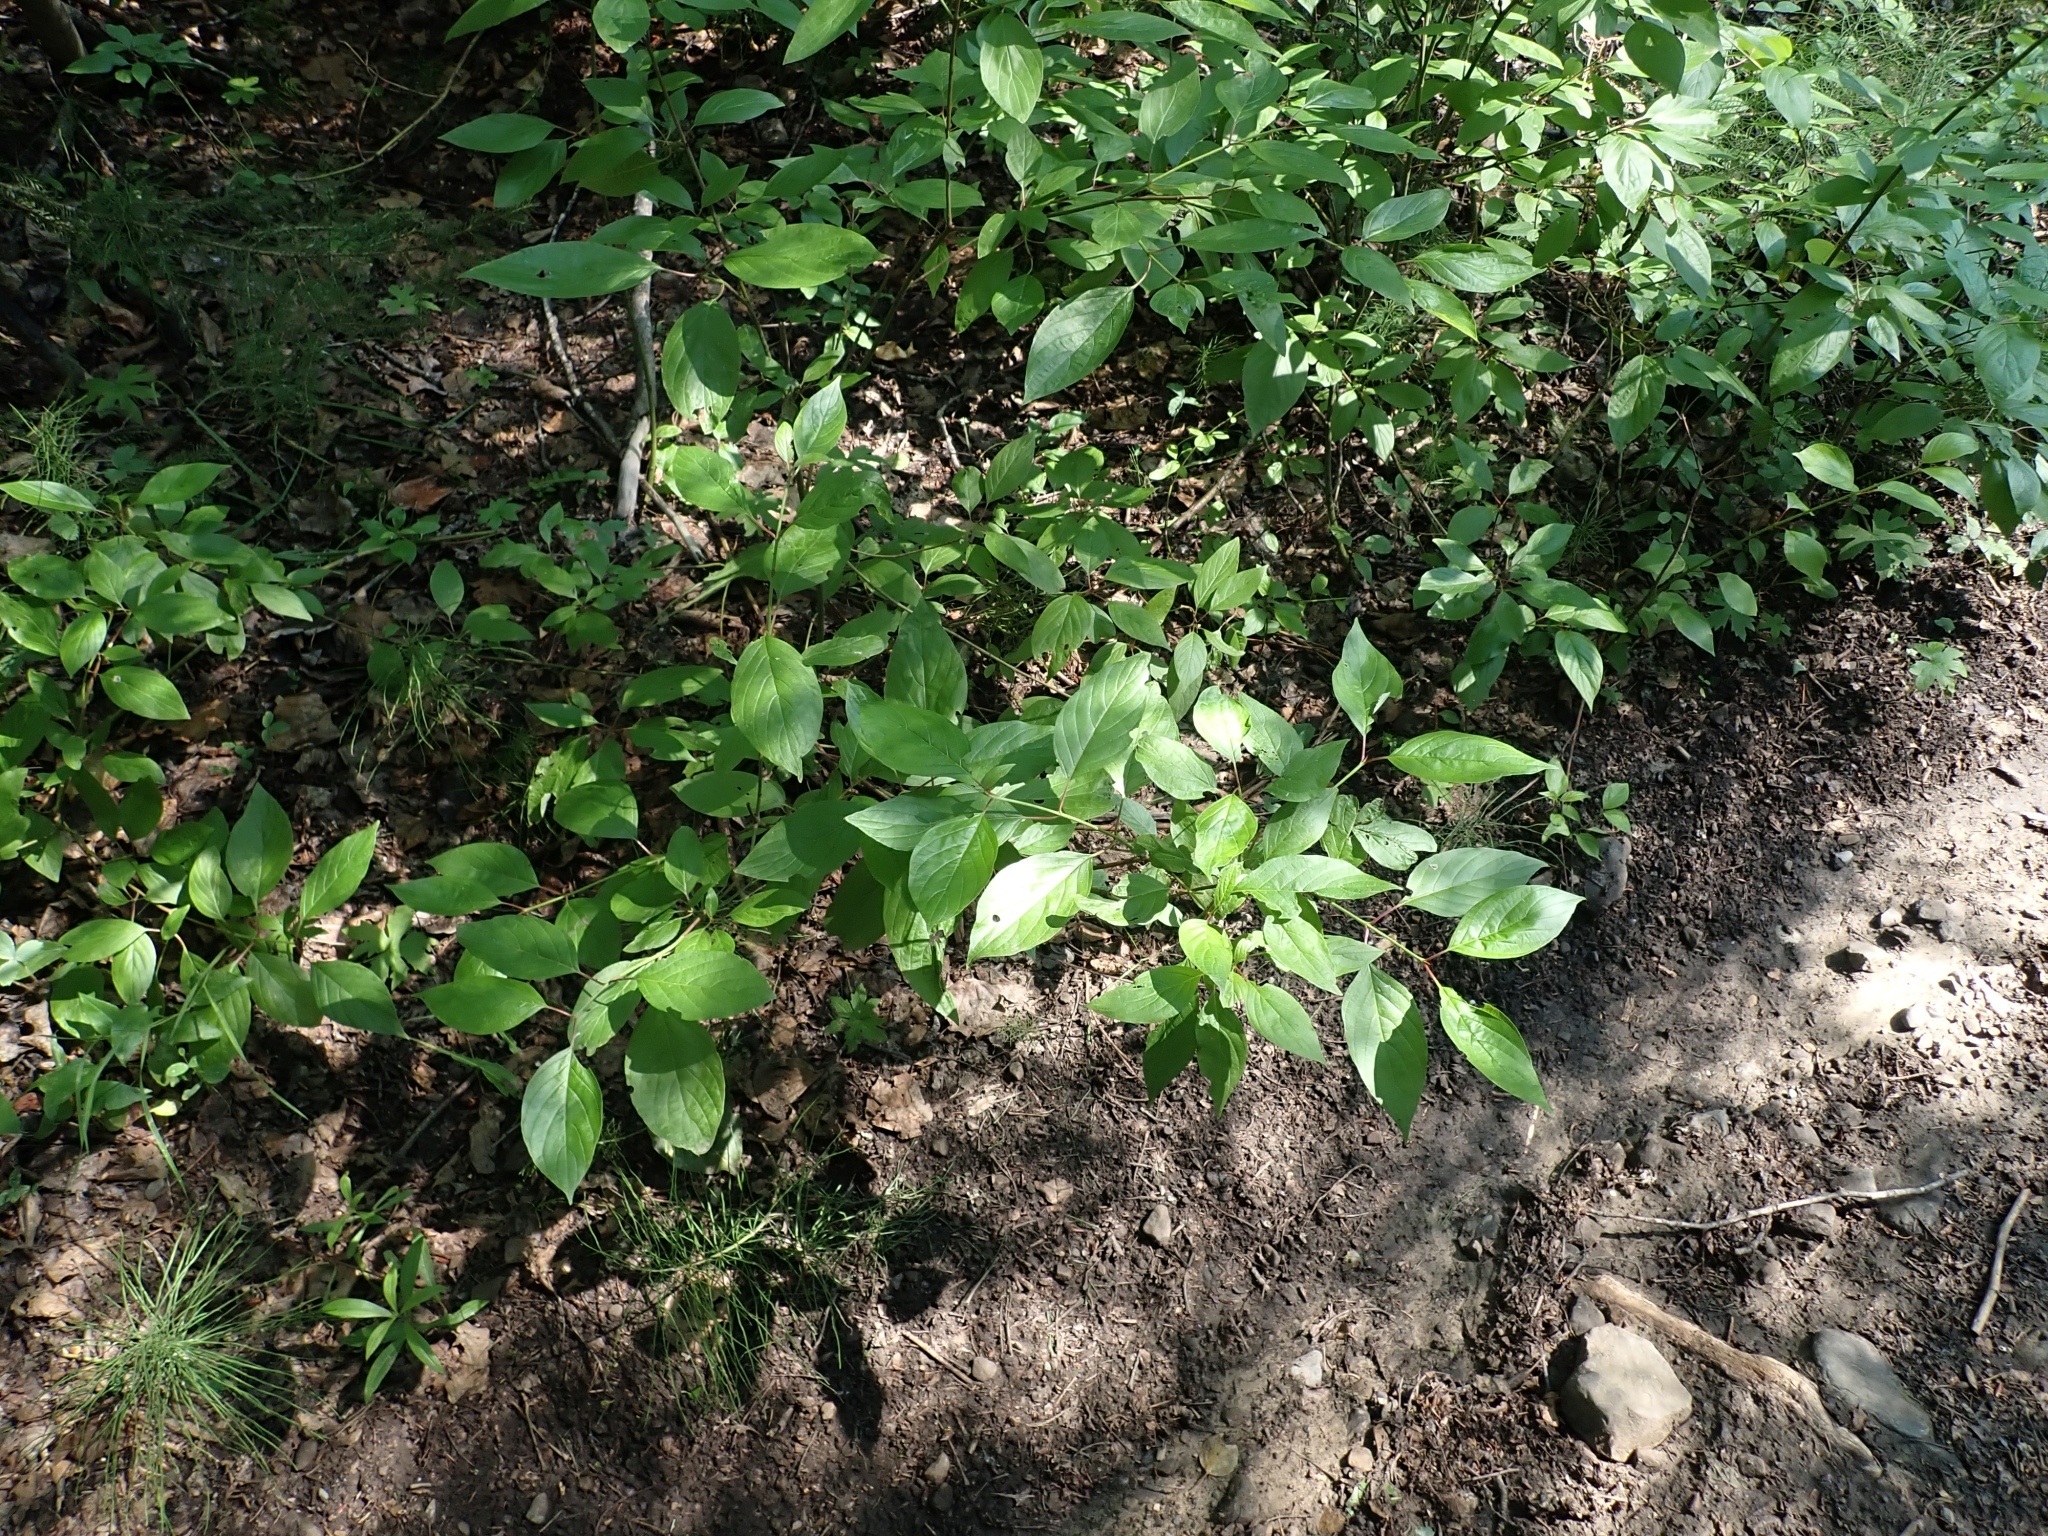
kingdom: Plantae
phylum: Tracheophyta
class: Magnoliopsida
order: Cornales
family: Cornaceae
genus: Cornus
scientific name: Cornus sericea
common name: Red-osier dogwood
